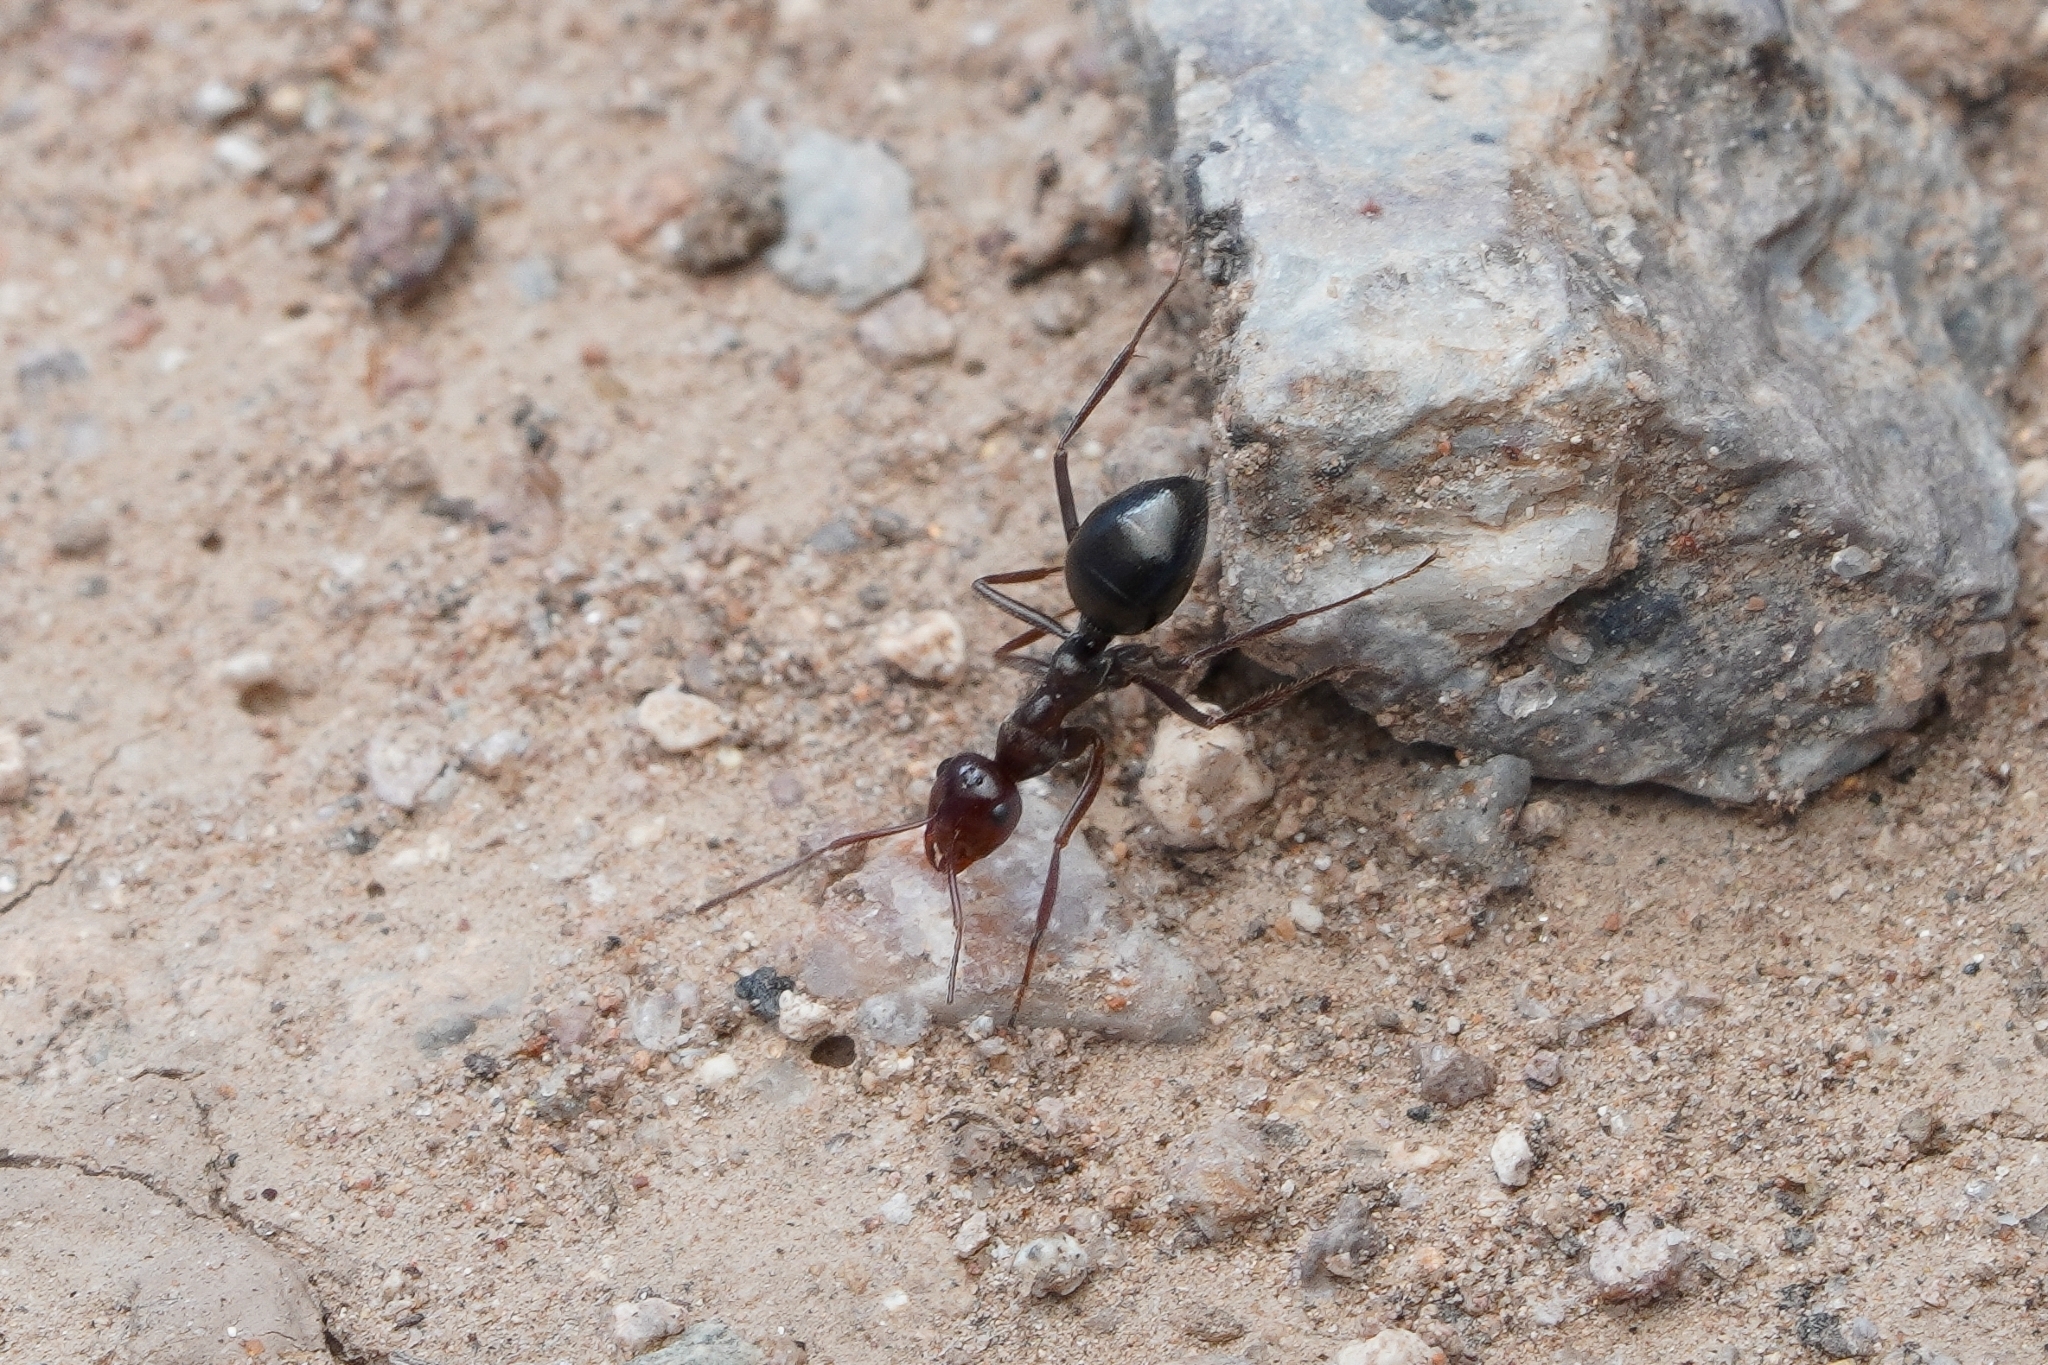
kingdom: Animalia
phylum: Arthropoda
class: Insecta
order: Hymenoptera
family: Formicidae
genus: Myrmecocystus
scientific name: Myrmecocystus mimicus
